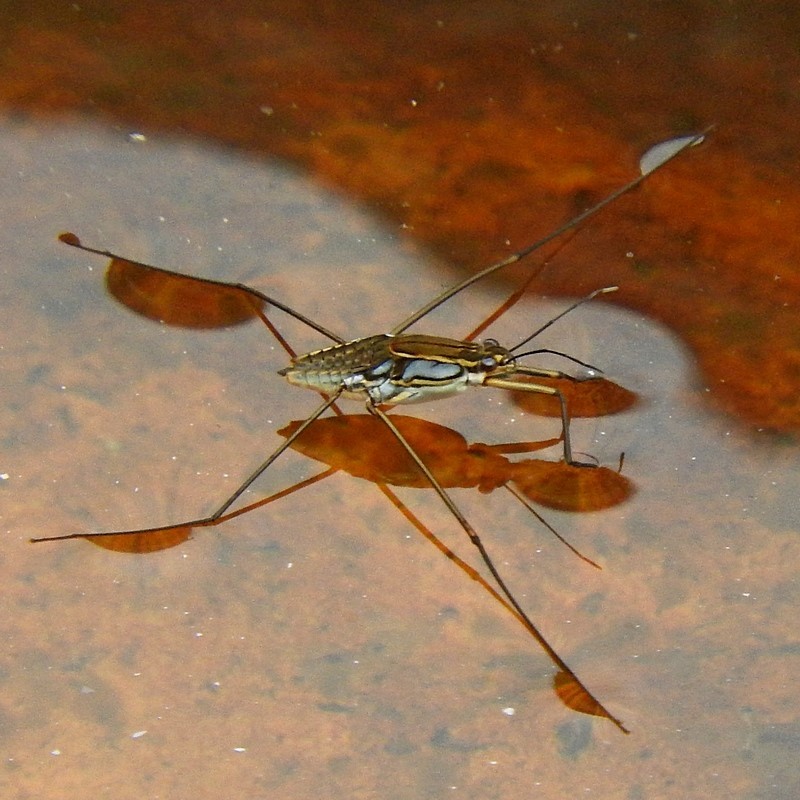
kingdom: Animalia
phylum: Arthropoda
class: Insecta
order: Hemiptera
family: Gerridae
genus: Tenagogerris
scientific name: Tenagogerris euphrosyne
